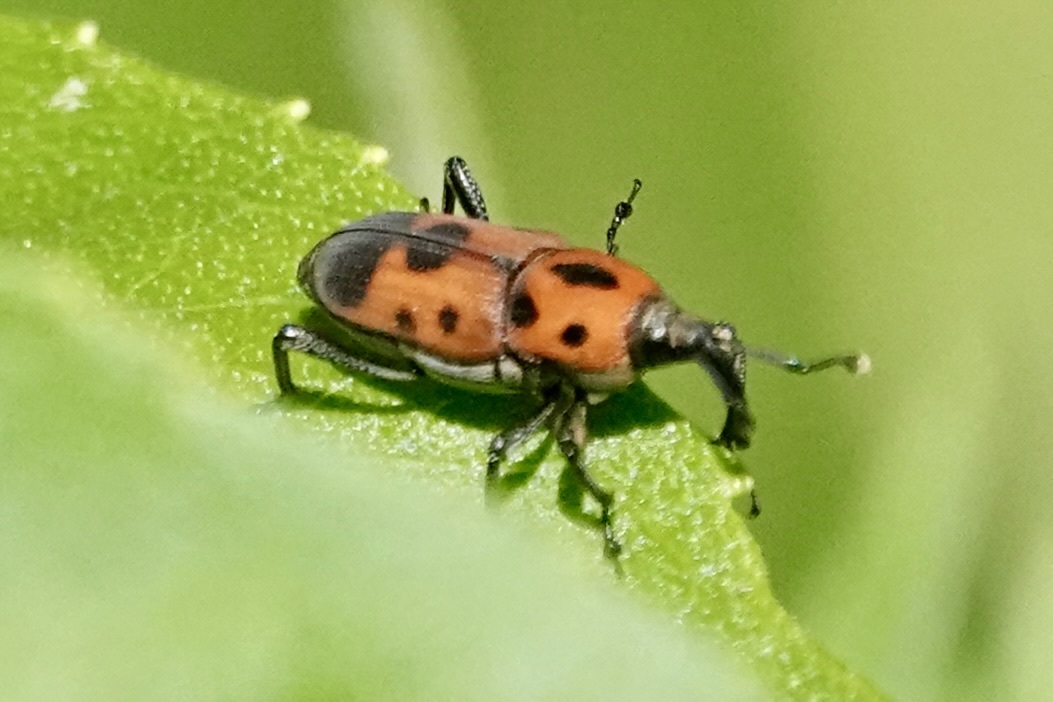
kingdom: Animalia
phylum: Arthropoda
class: Insecta
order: Coleoptera
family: Dryophthoridae
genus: Rhodobaenus
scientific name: Rhodobaenus quinquepunctatus
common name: Cocklebur weevil
